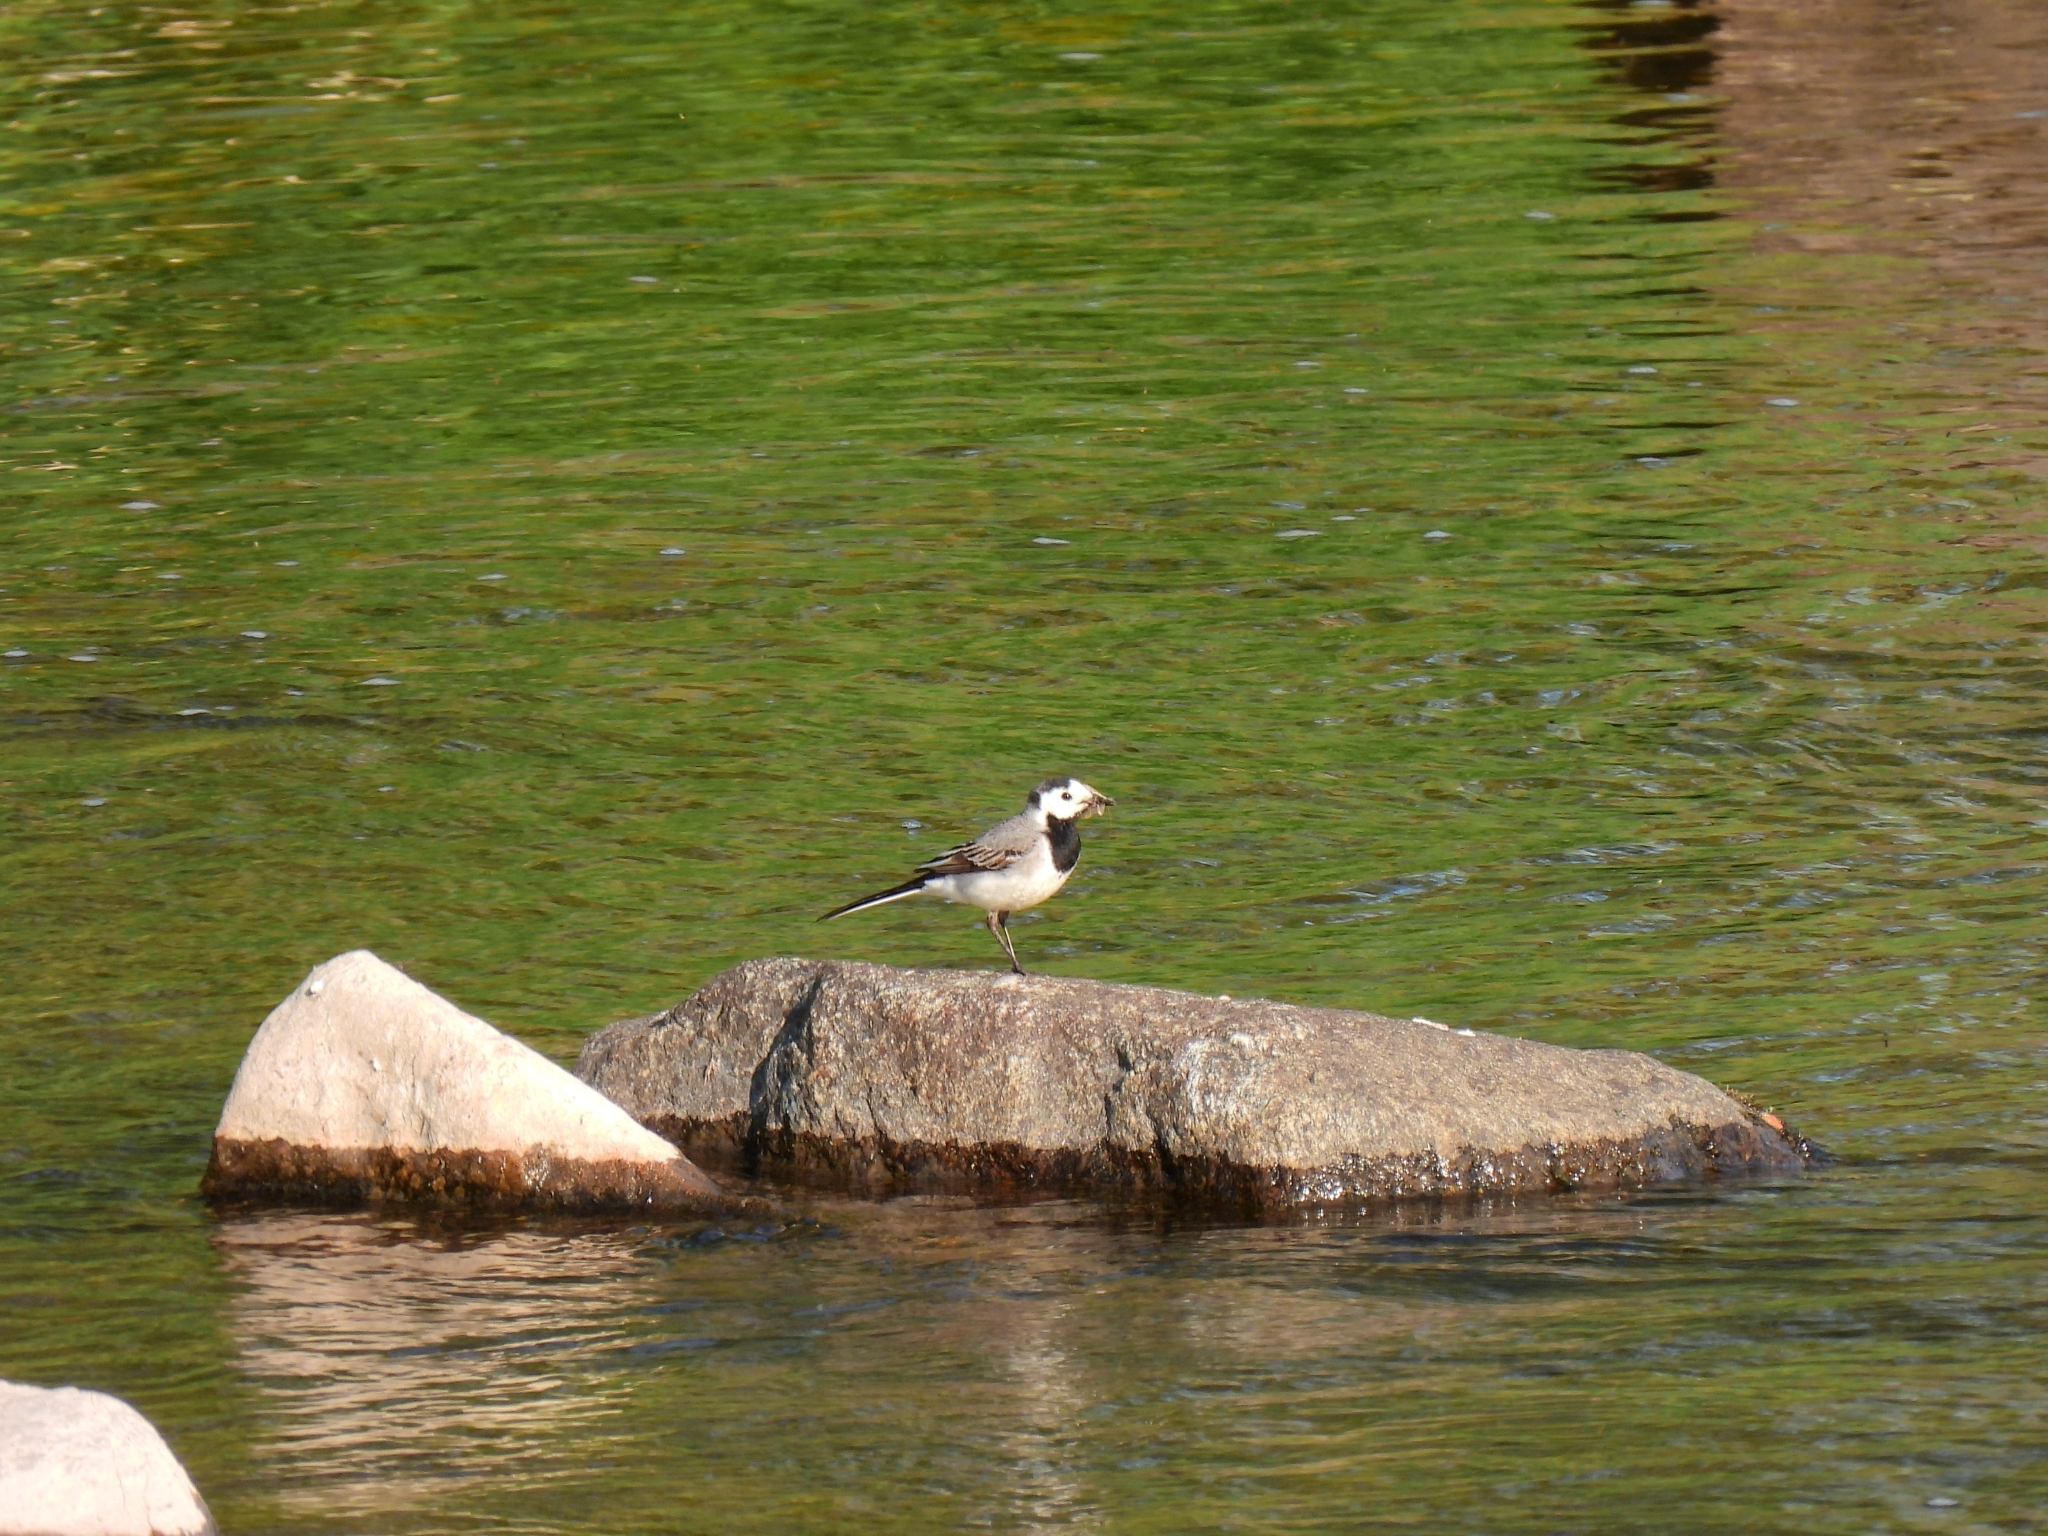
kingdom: Animalia
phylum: Chordata
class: Aves
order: Passeriformes
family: Motacillidae
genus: Motacilla
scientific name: Motacilla alba
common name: White wagtail
